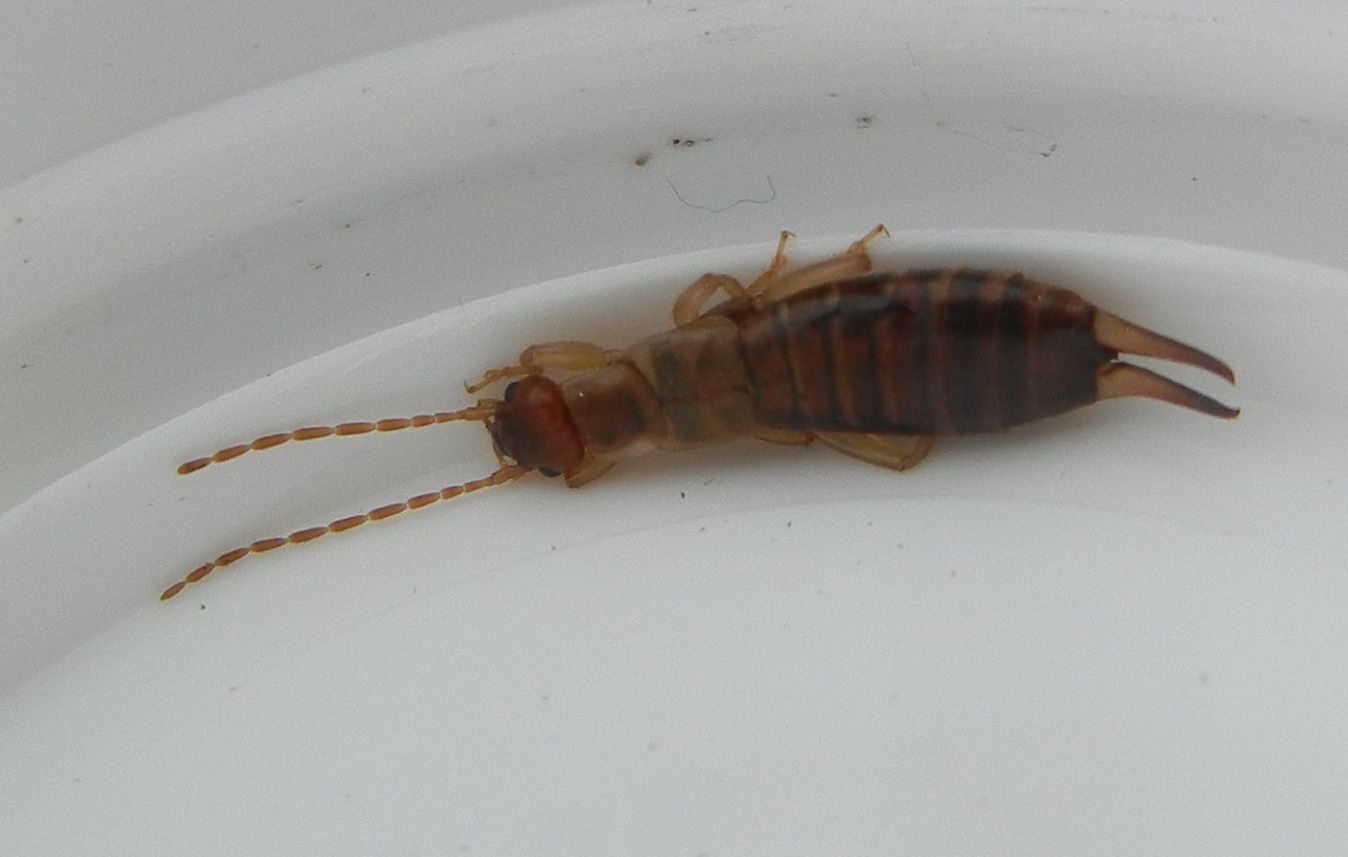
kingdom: Animalia
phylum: Arthropoda
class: Insecta
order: Dermaptera
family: Forficulidae
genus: Forficula
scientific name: Forficula lesnei
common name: Lesne's earwig
